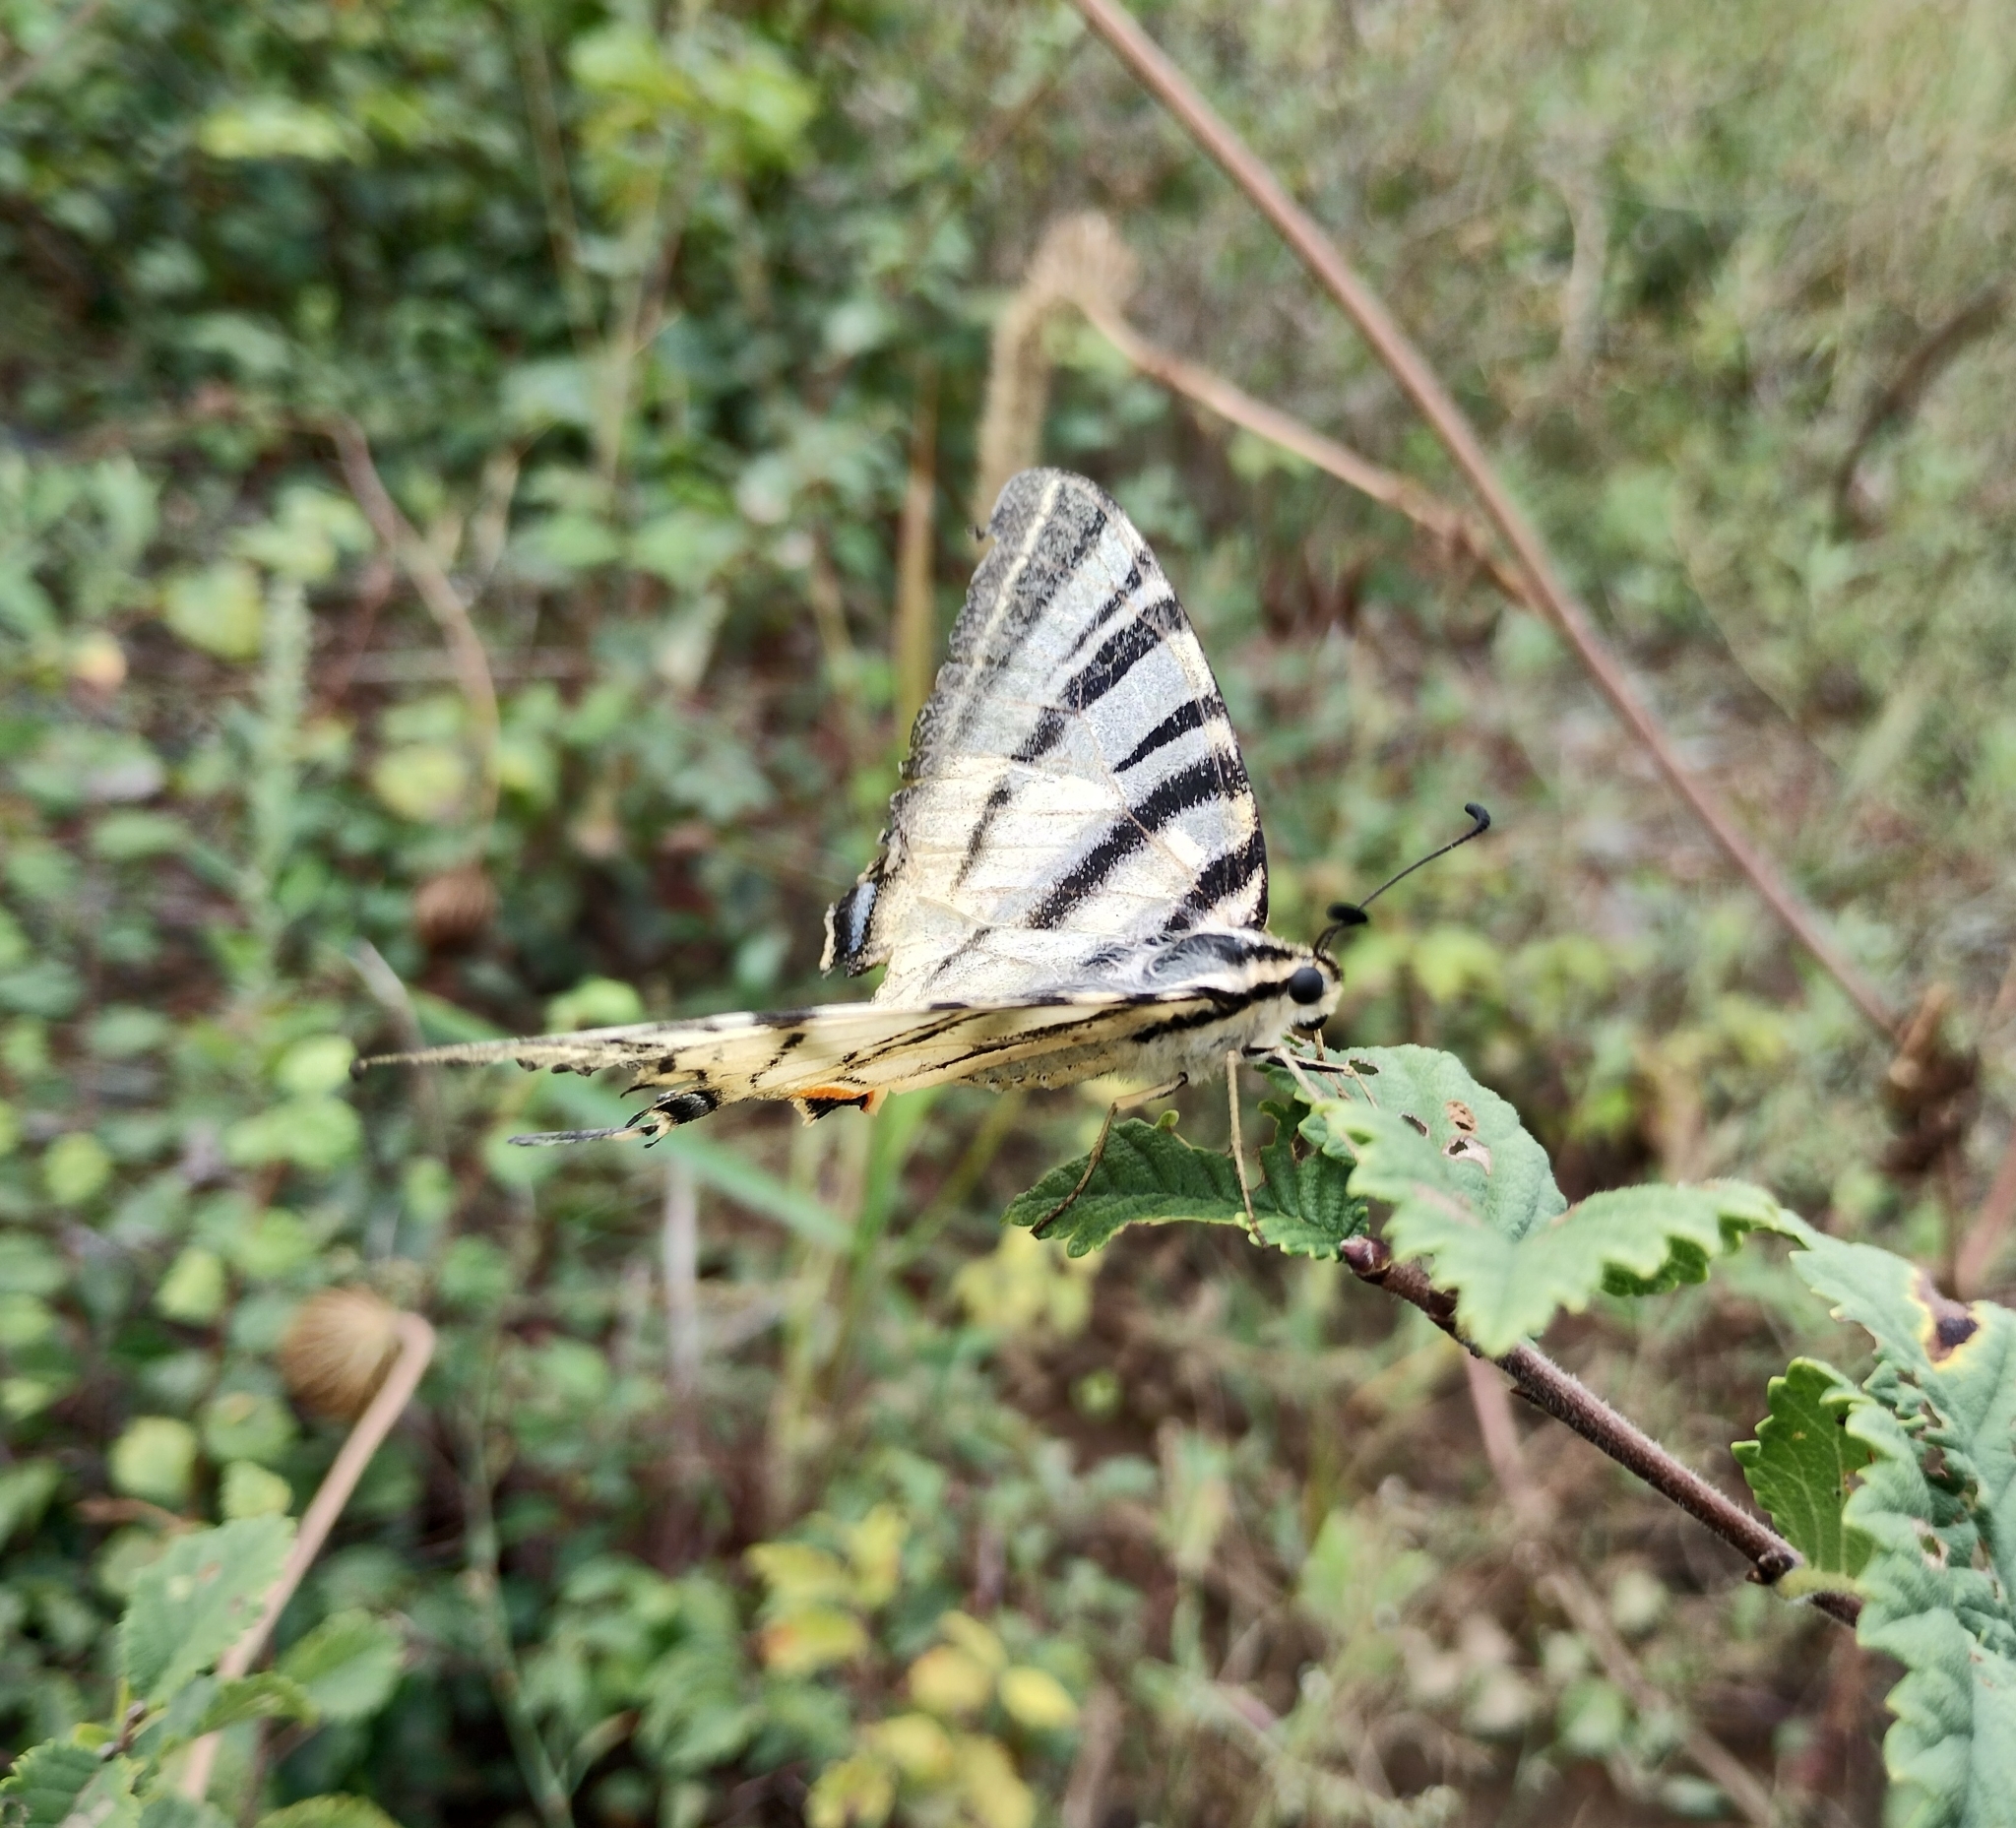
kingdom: Animalia
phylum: Arthropoda
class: Insecta
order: Lepidoptera
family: Papilionidae
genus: Iphiclides
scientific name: Iphiclides podalirius
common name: Scarce swallowtail
